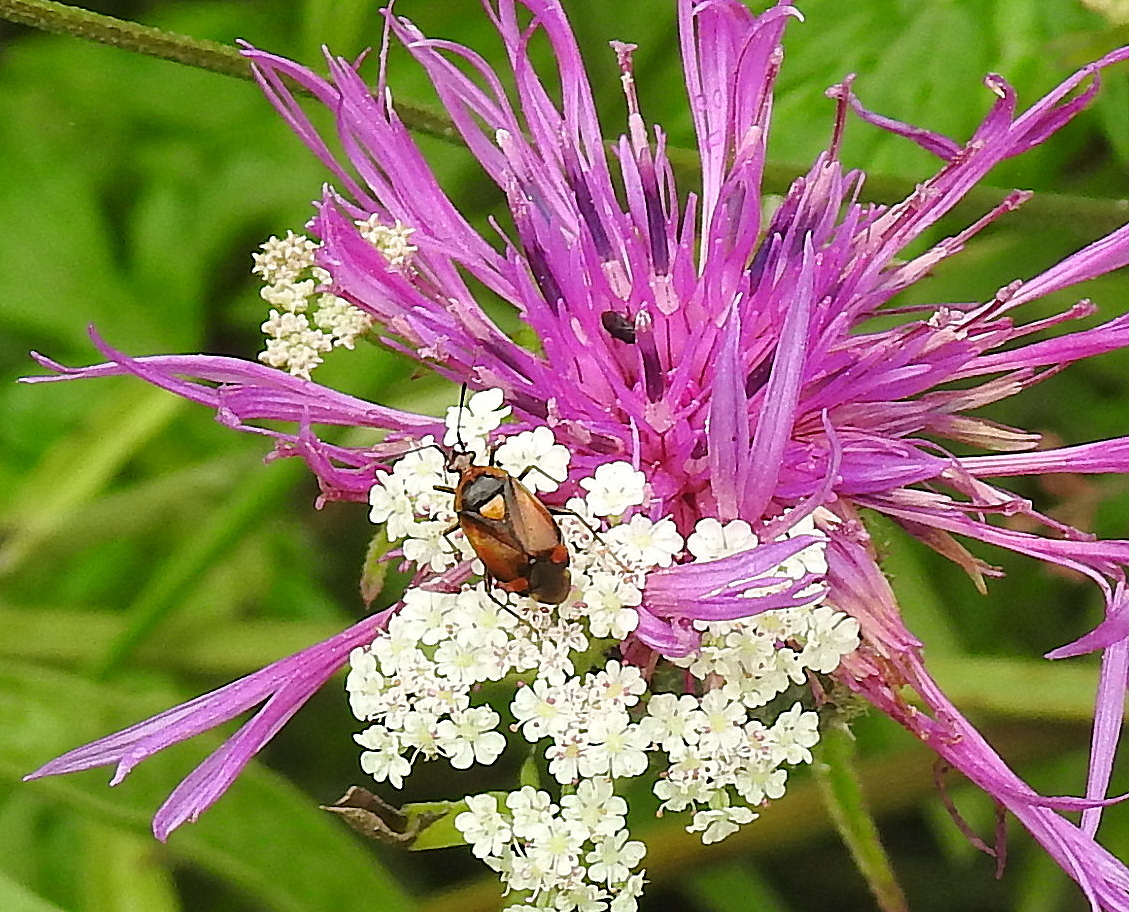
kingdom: Animalia
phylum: Arthropoda
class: Insecta
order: Hemiptera
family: Miridae
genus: Deraeocoris
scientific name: Deraeocoris ruber
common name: Plant bug
